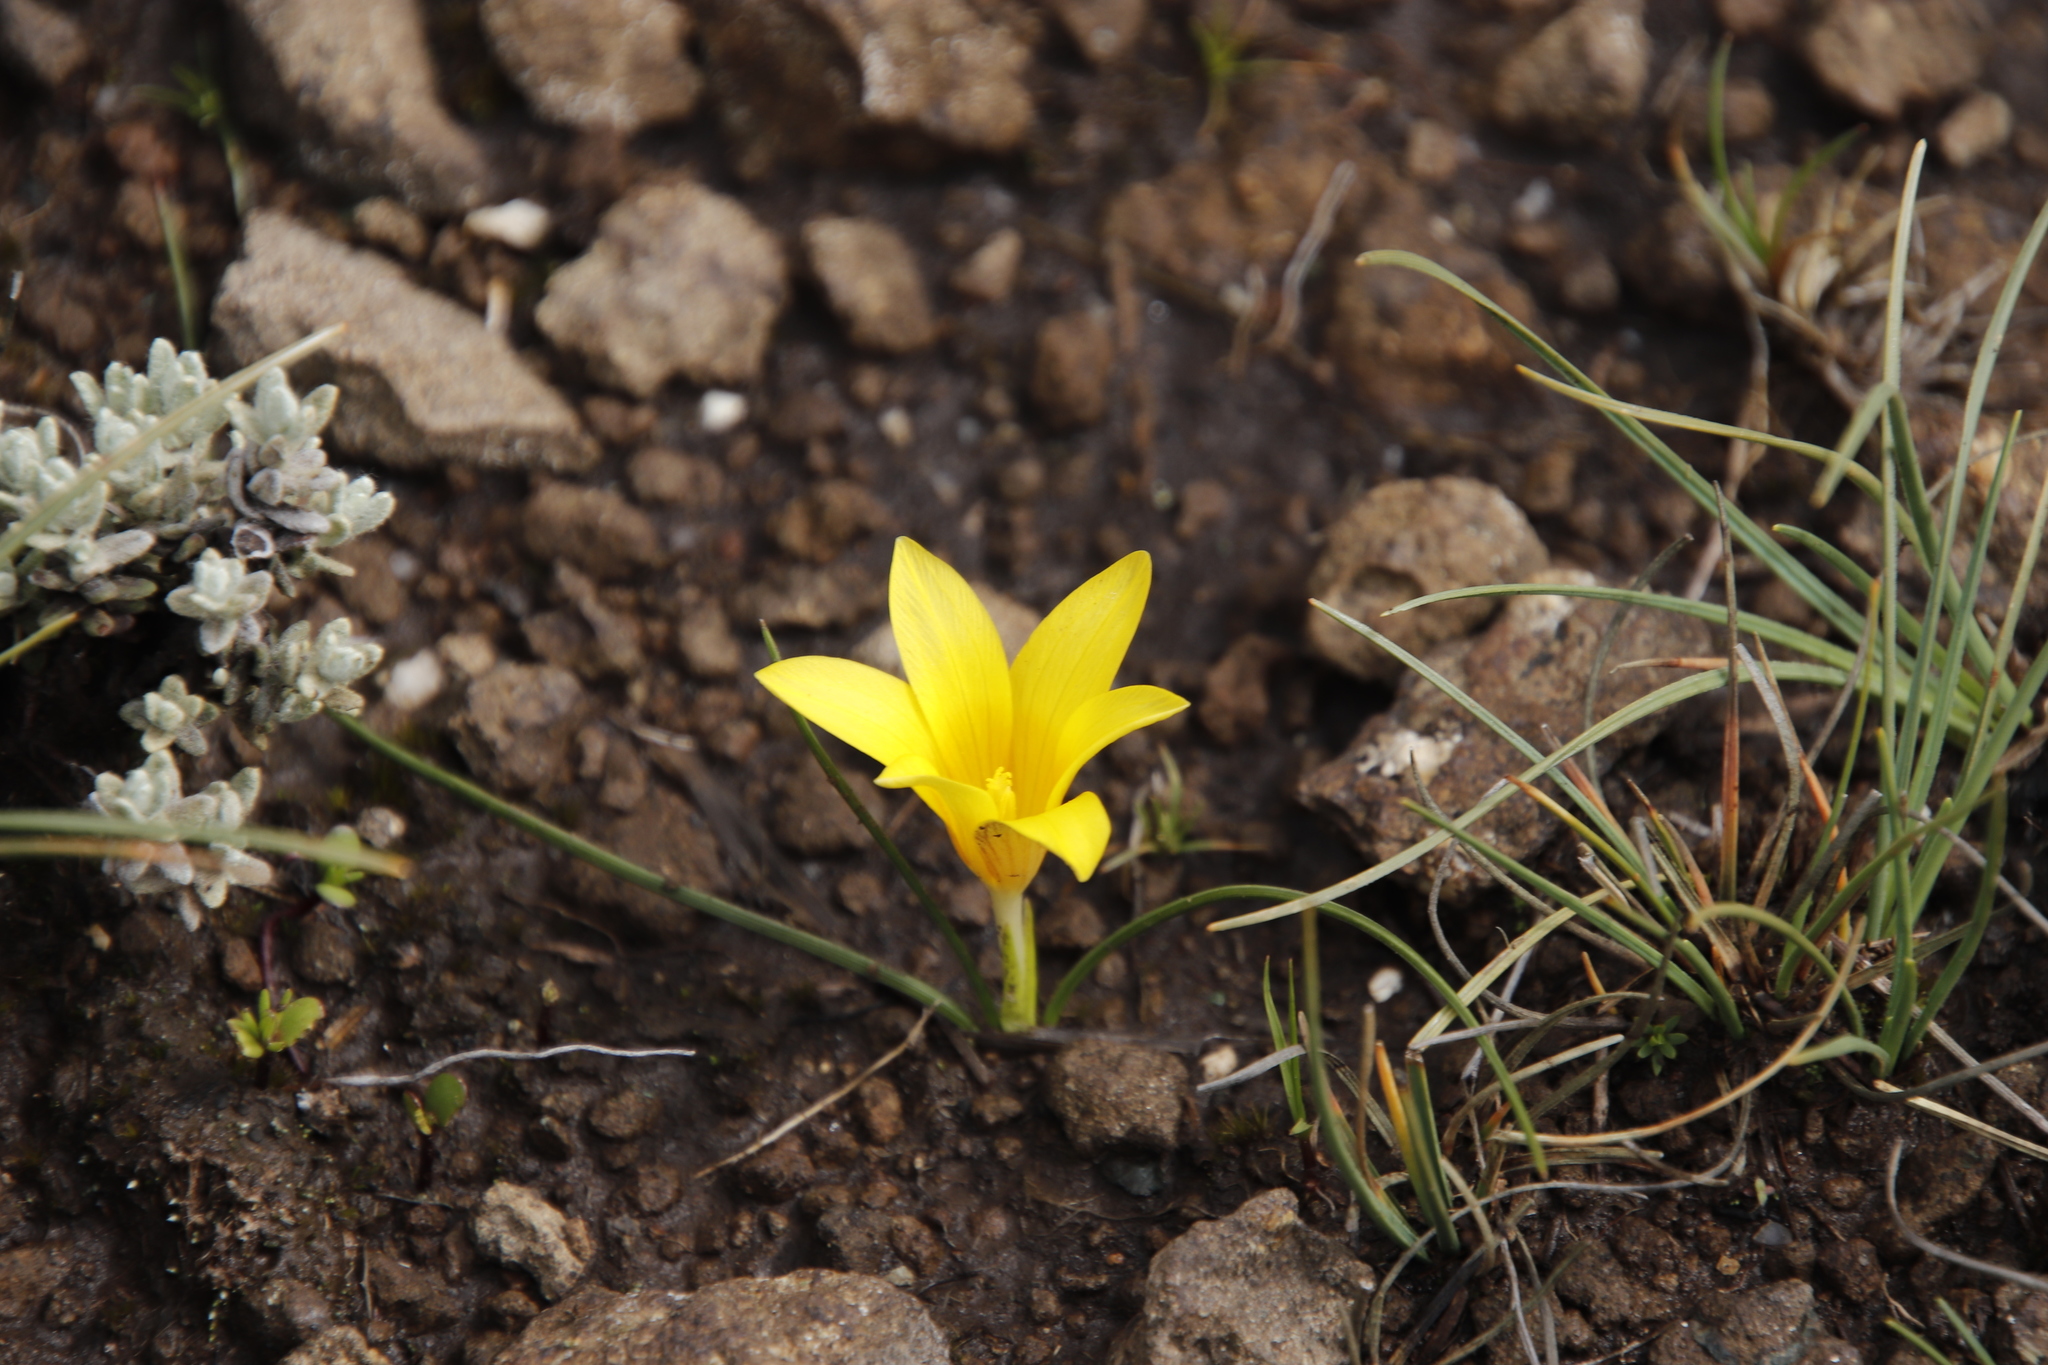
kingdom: Plantae
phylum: Tracheophyta
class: Liliopsida
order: Asparagales
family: Iridaceae
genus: Romulea
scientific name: Romulea macowanii
